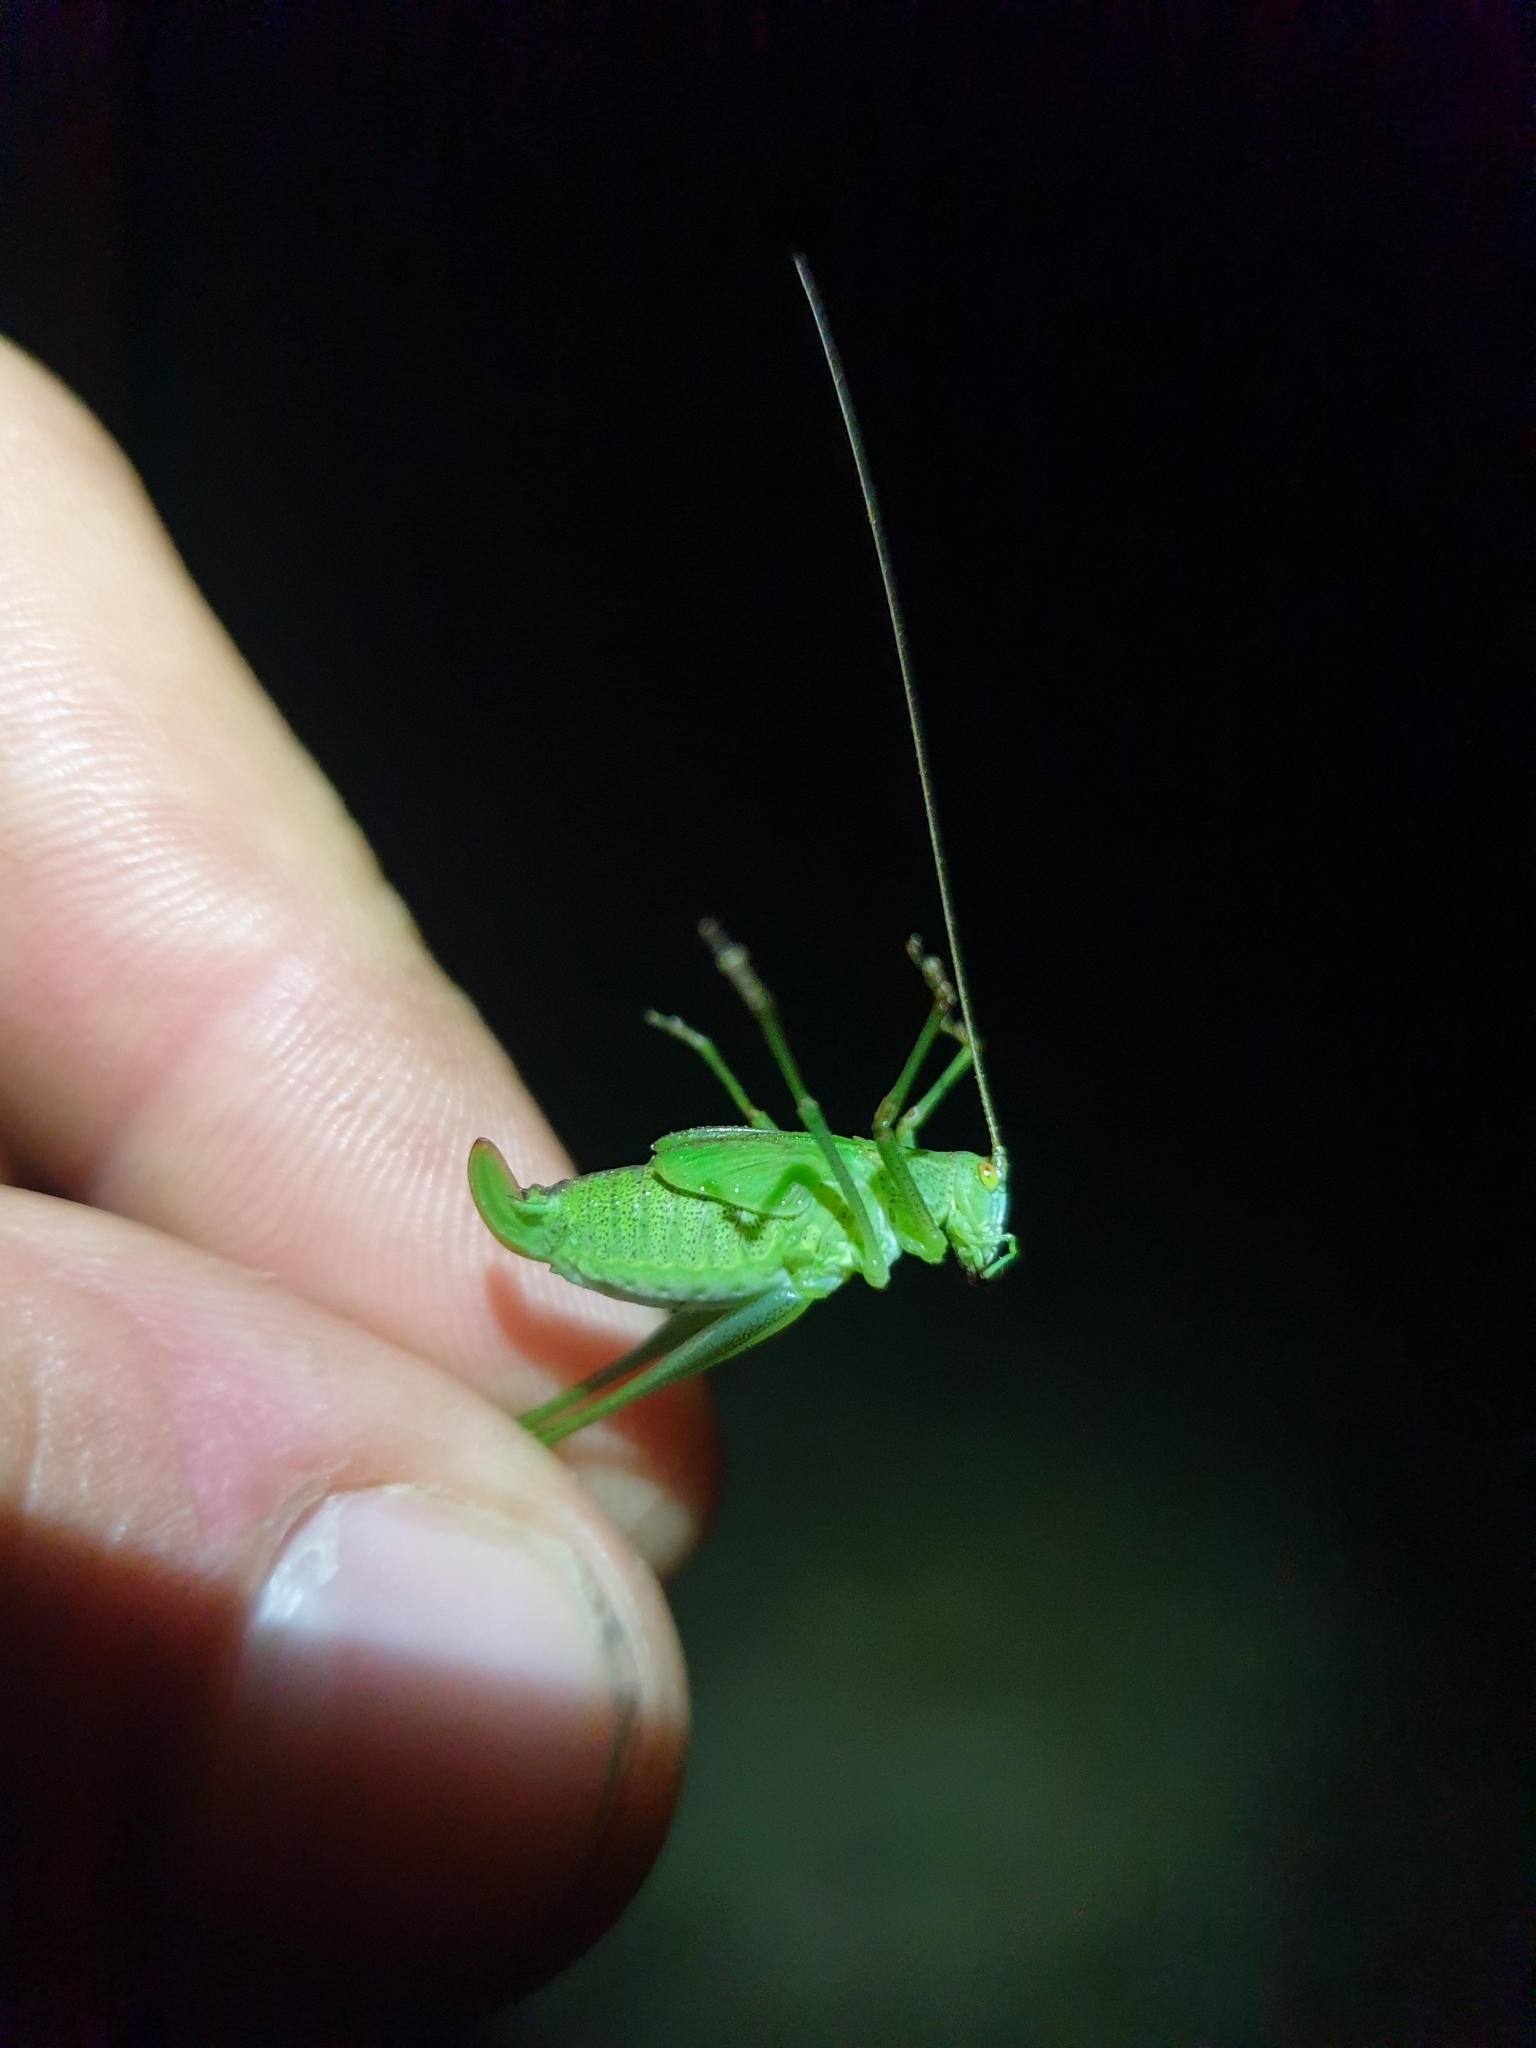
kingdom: Animalia
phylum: Arthropoda
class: Insecta
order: Orthoptera
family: Tettigoniidae
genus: Phaneroptera
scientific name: Phaneroptera falcata
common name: Sickle-bearing bush-cricket
